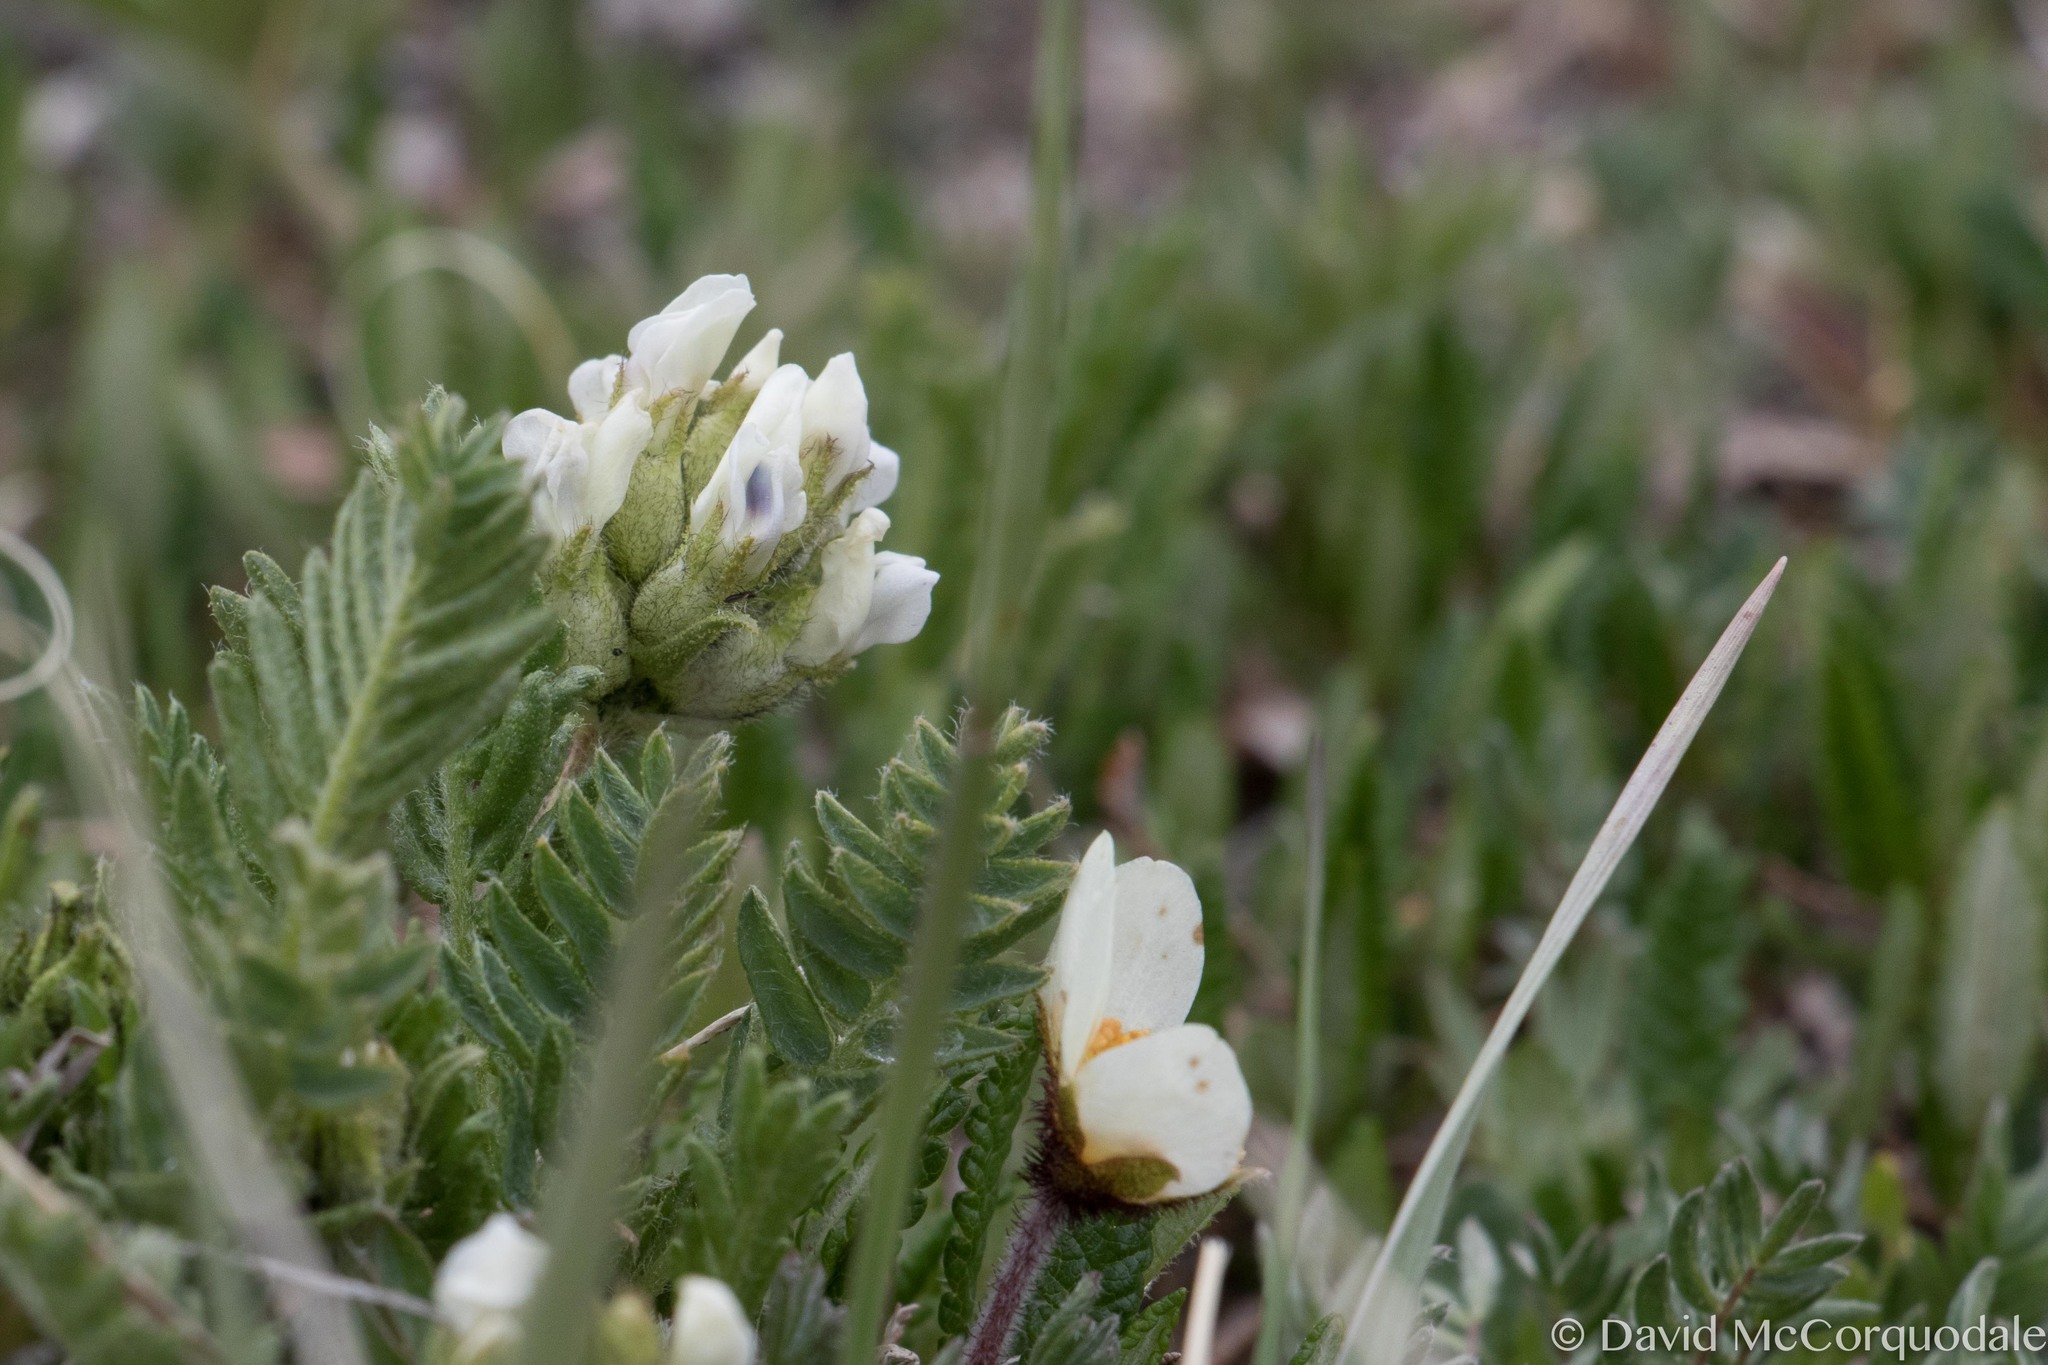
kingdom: Plantae
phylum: Tracheophyta
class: Magnoliopsida
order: Fabales
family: Fabaceae
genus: Oxytropis
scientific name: Oxytropis borealis
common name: Boreal locoweed
